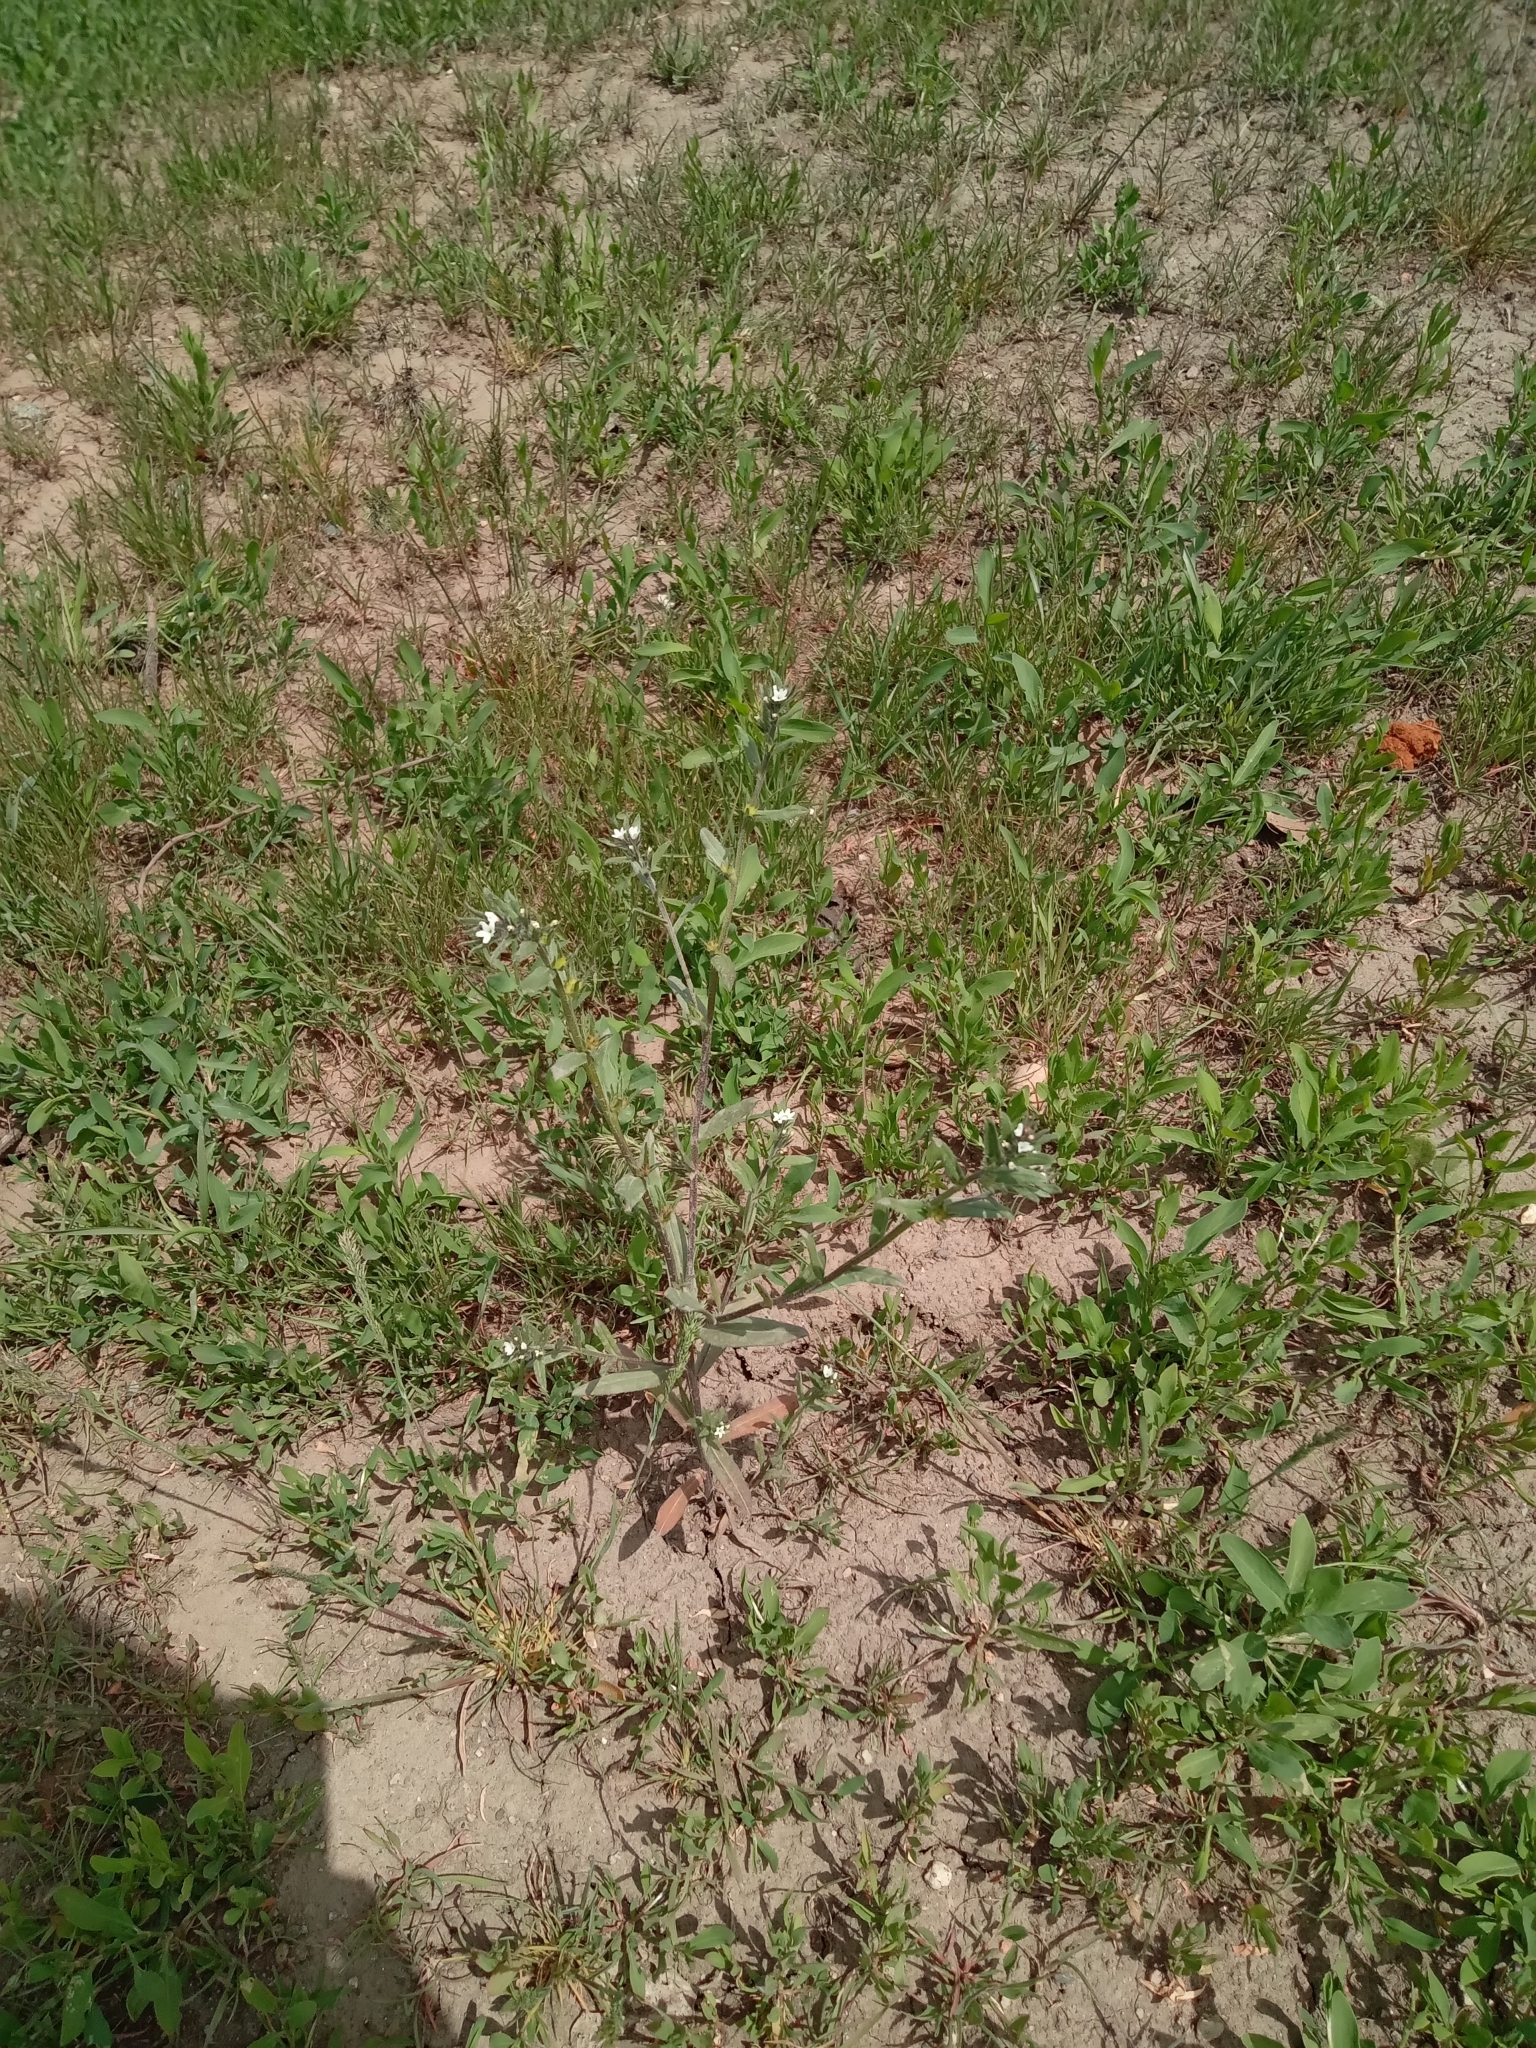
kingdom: Plantae
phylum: Tracheophyta
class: Magnoliopsida
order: Boraginales
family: Boraginaceae
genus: Buglossoides
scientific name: Buglossoides arvensis
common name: Corn gromwell
